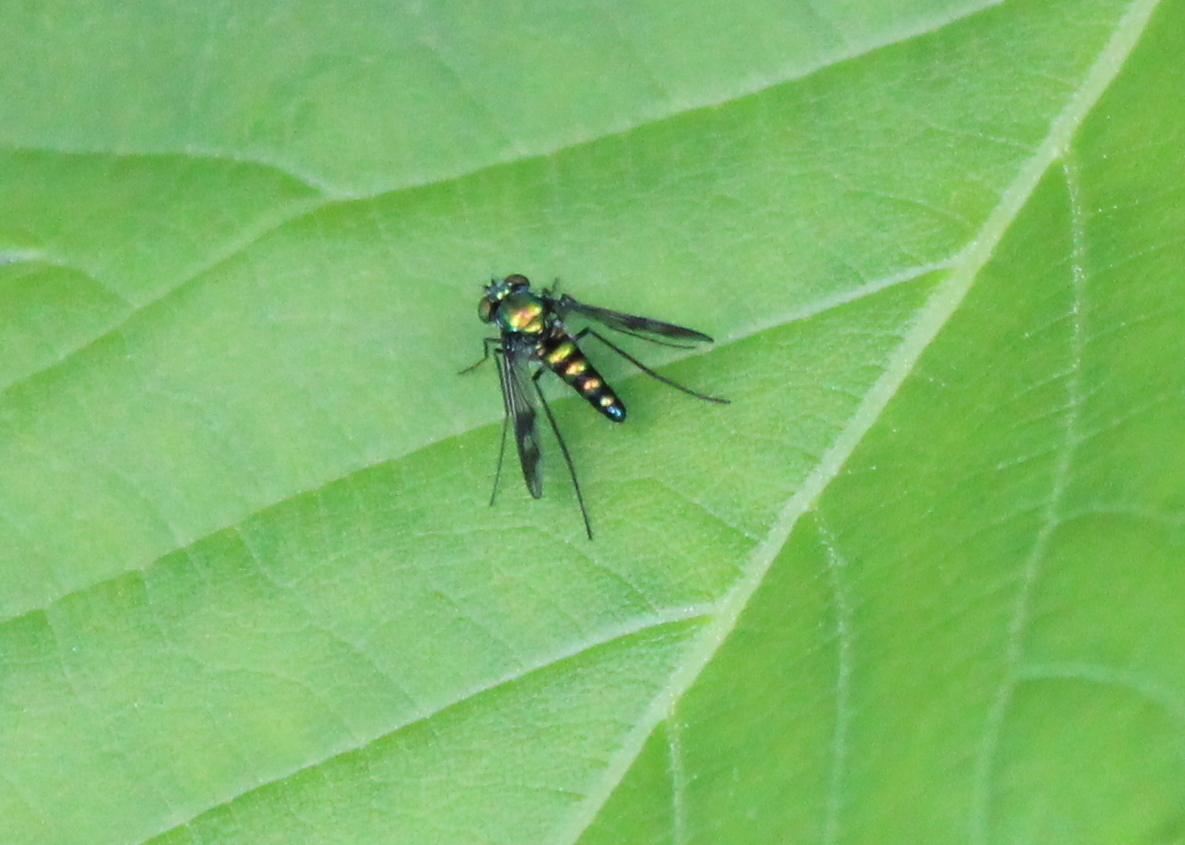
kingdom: Animalia
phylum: Arthropoda
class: Insecta
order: Diptera
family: Dolichopodidae
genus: Condylostylus
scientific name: Condylostylus patibulatus
